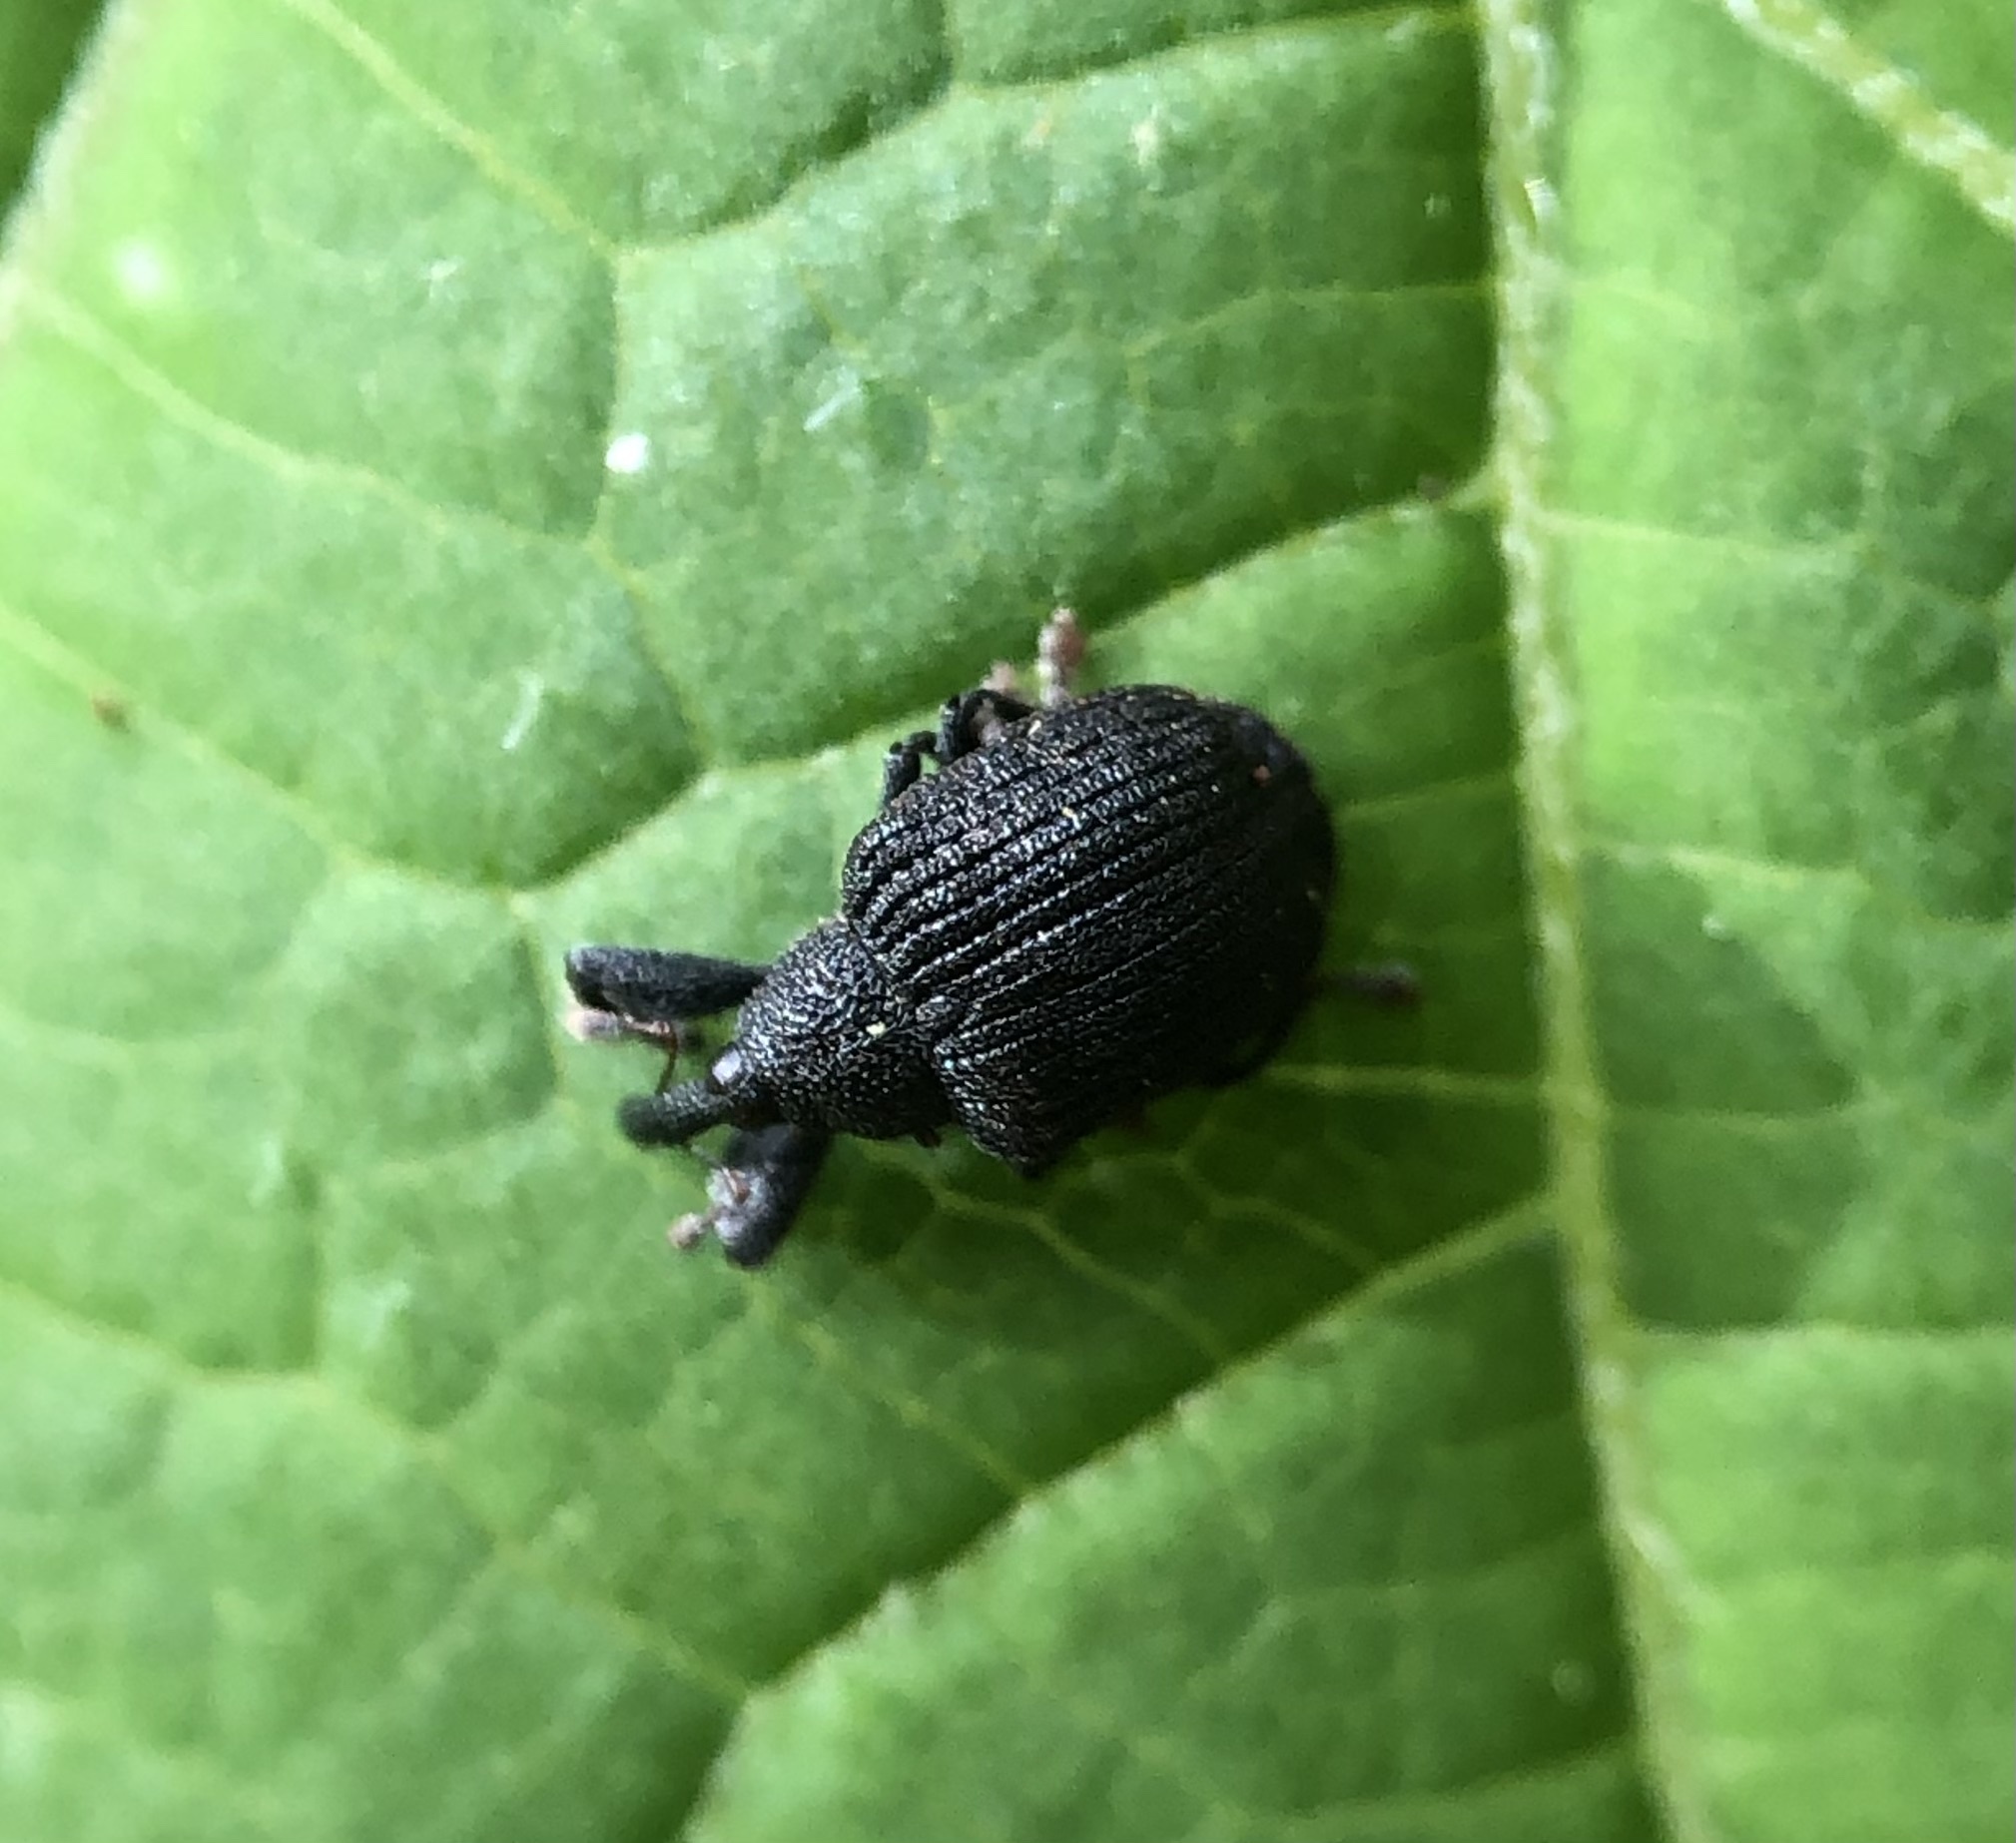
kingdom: Animalia
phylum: Arthropoda
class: Insecta
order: Coleoptera
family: Curculionidae
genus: Odontopus
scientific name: Odontopus calceatus
